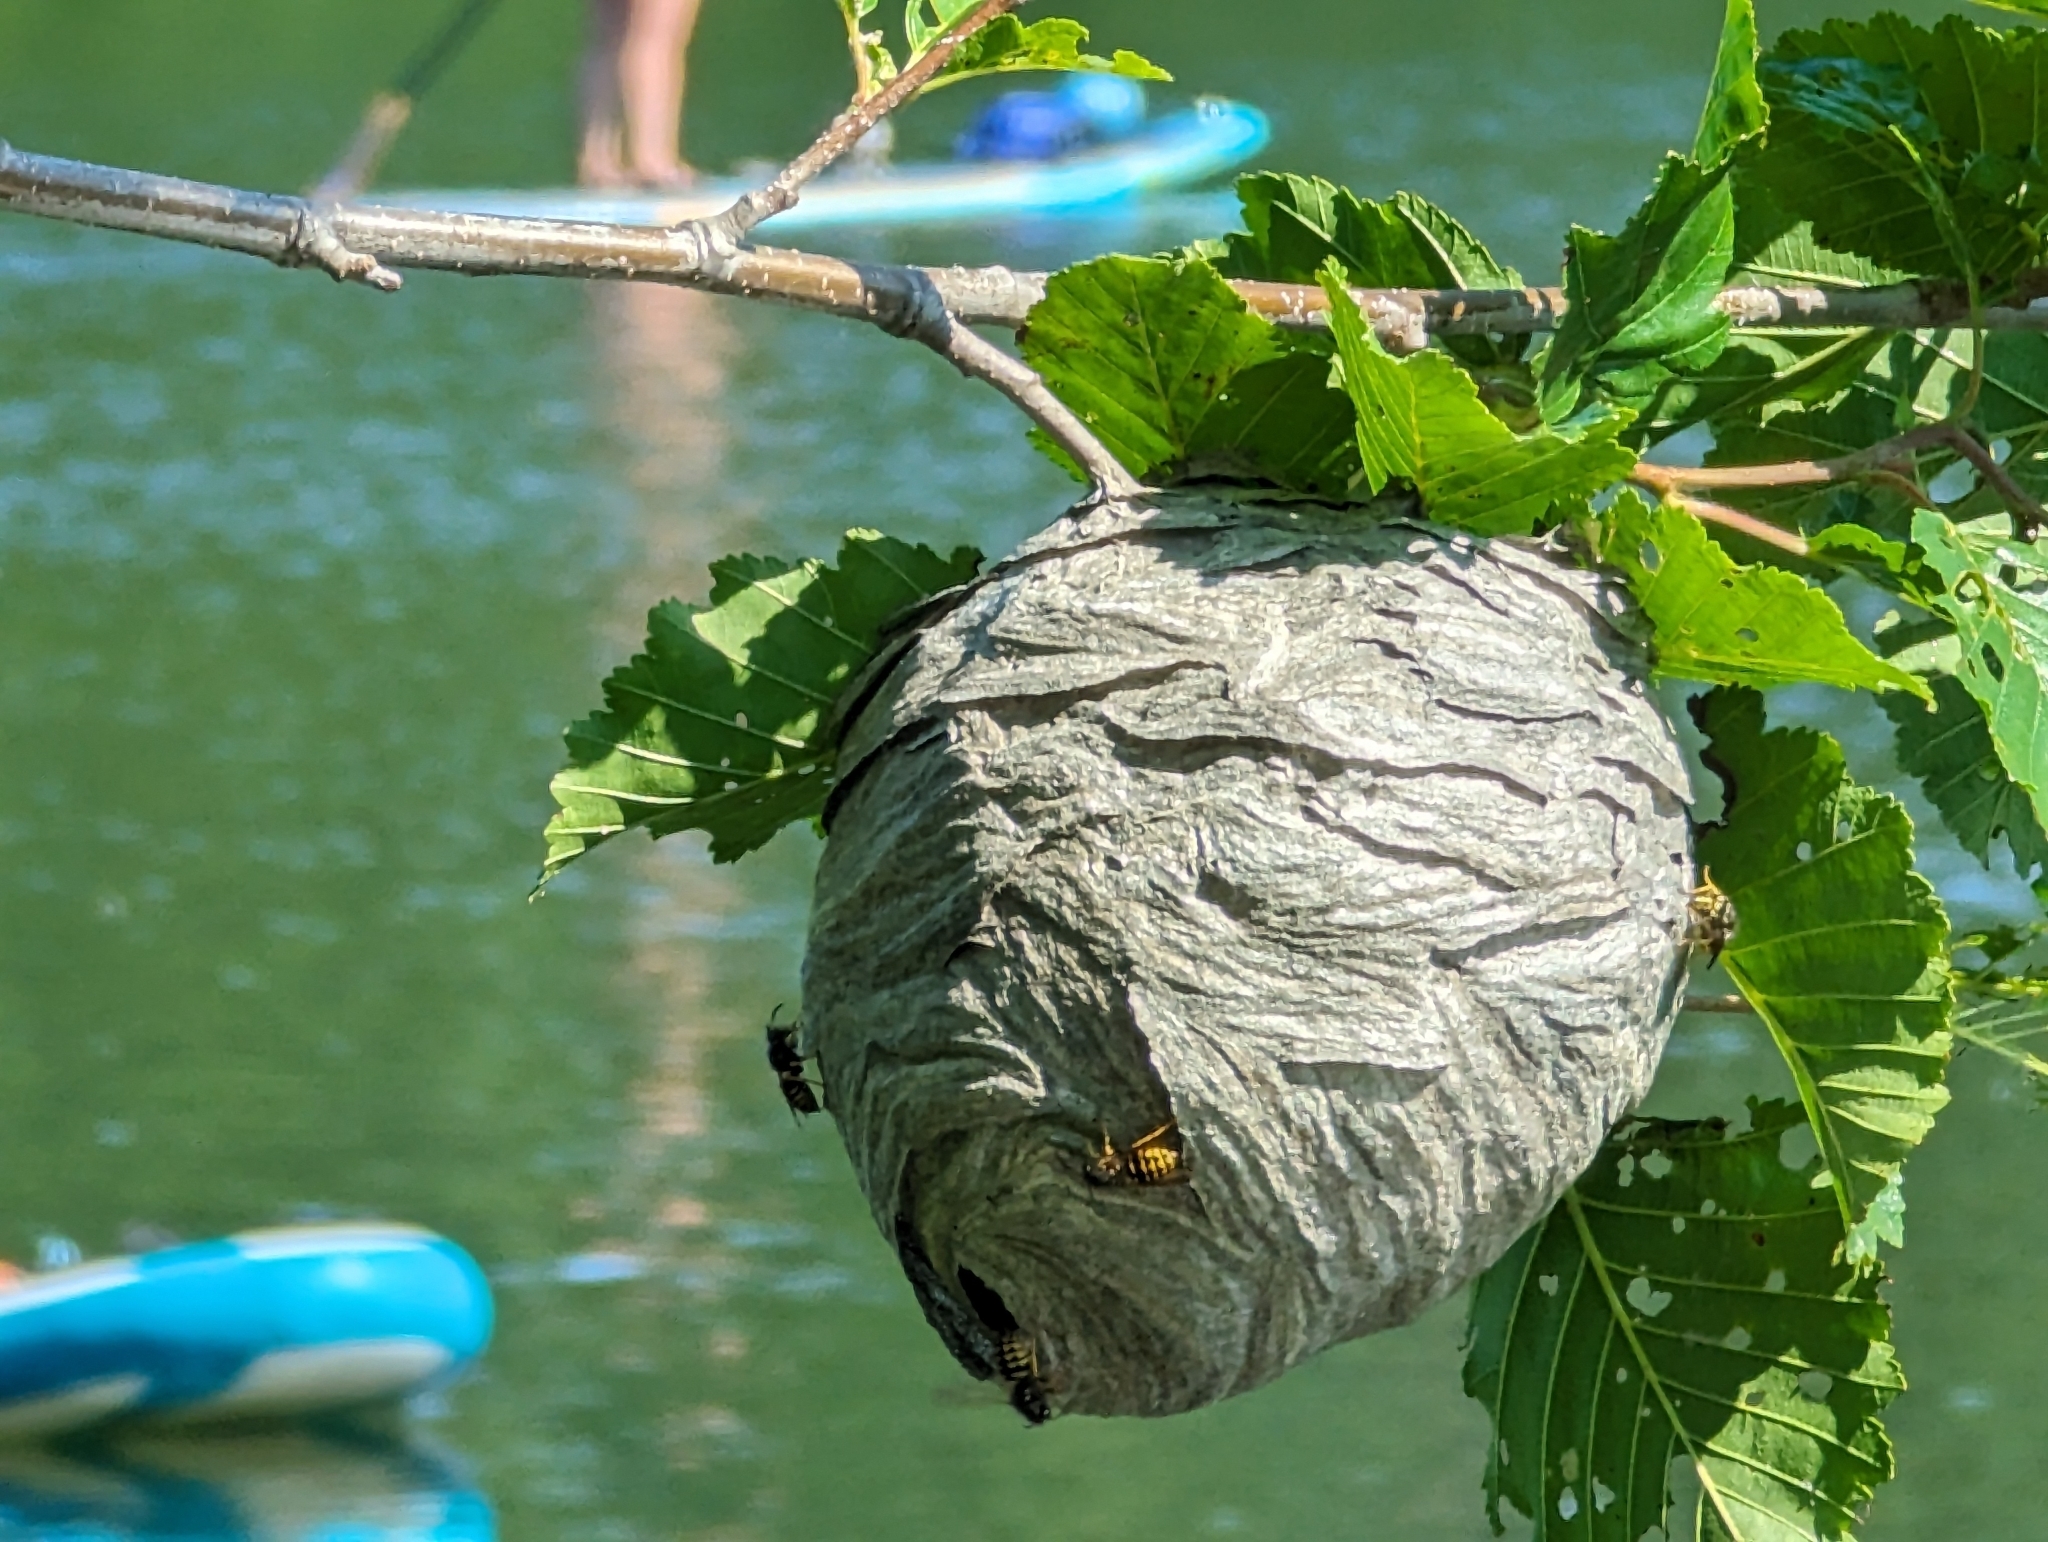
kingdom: Animalia
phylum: Arthropoda
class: Insecta
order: Hymenoptera
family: Vespidae
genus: Dolichovespula
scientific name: Dolichovespula arenaria
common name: Aerial yellowjacket
